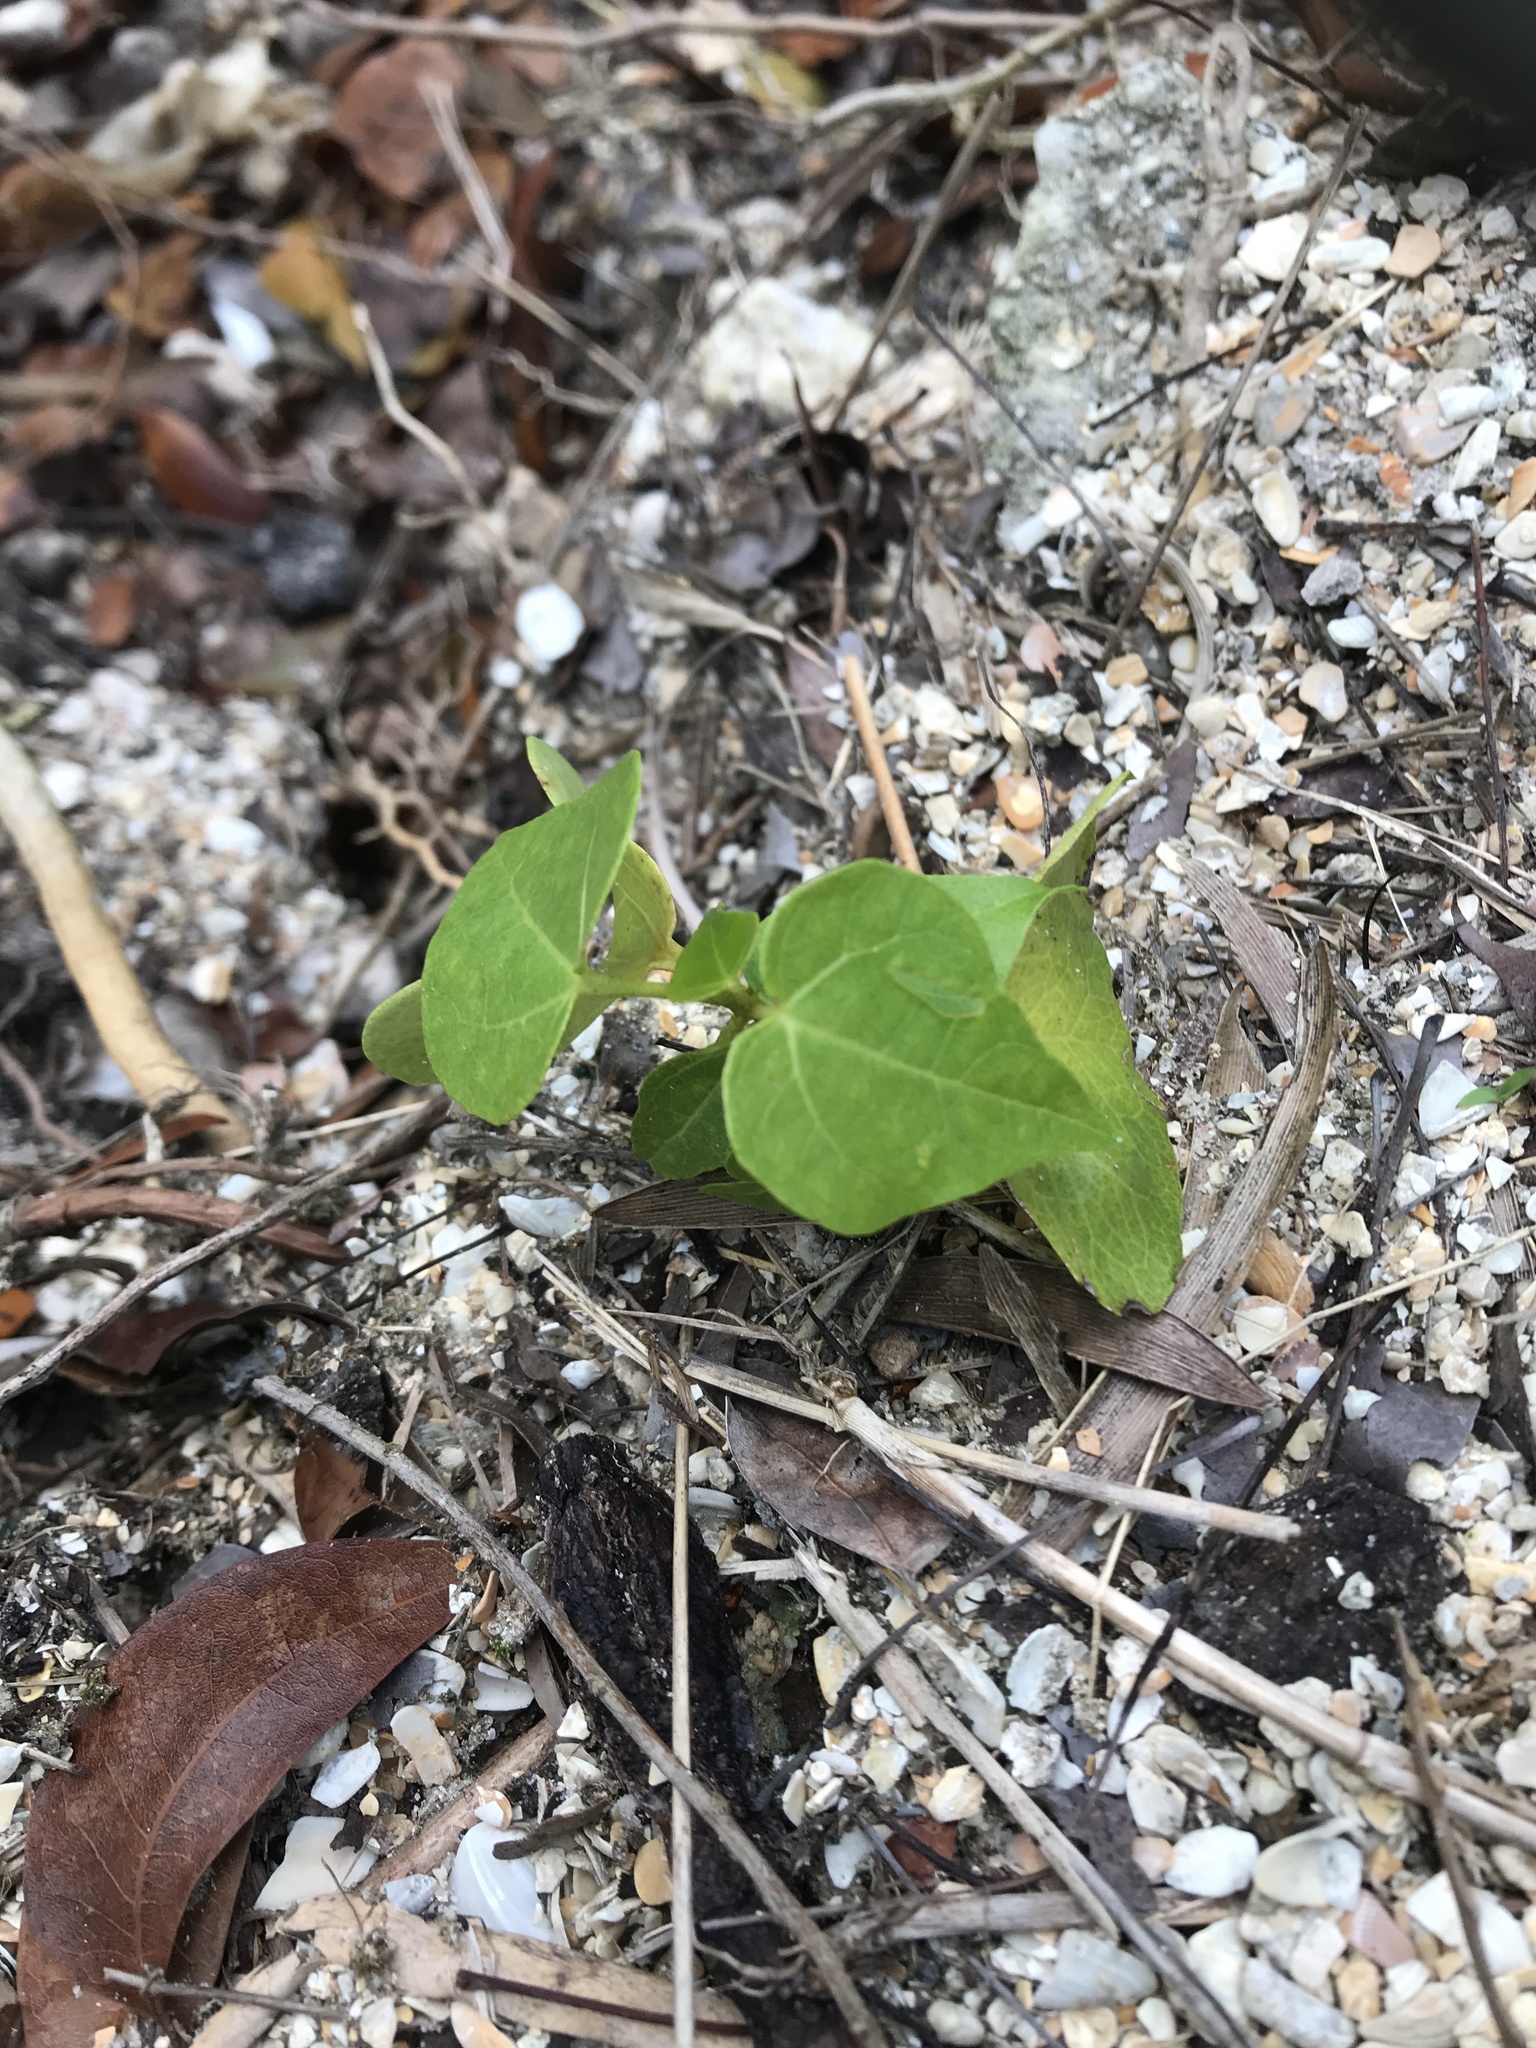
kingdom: Plantae
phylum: Tracheophyta
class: Magnoliopsida
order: Malvales
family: Malvaceae
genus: Thespesia
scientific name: Thespesia populnea
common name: Seaside mahoe
